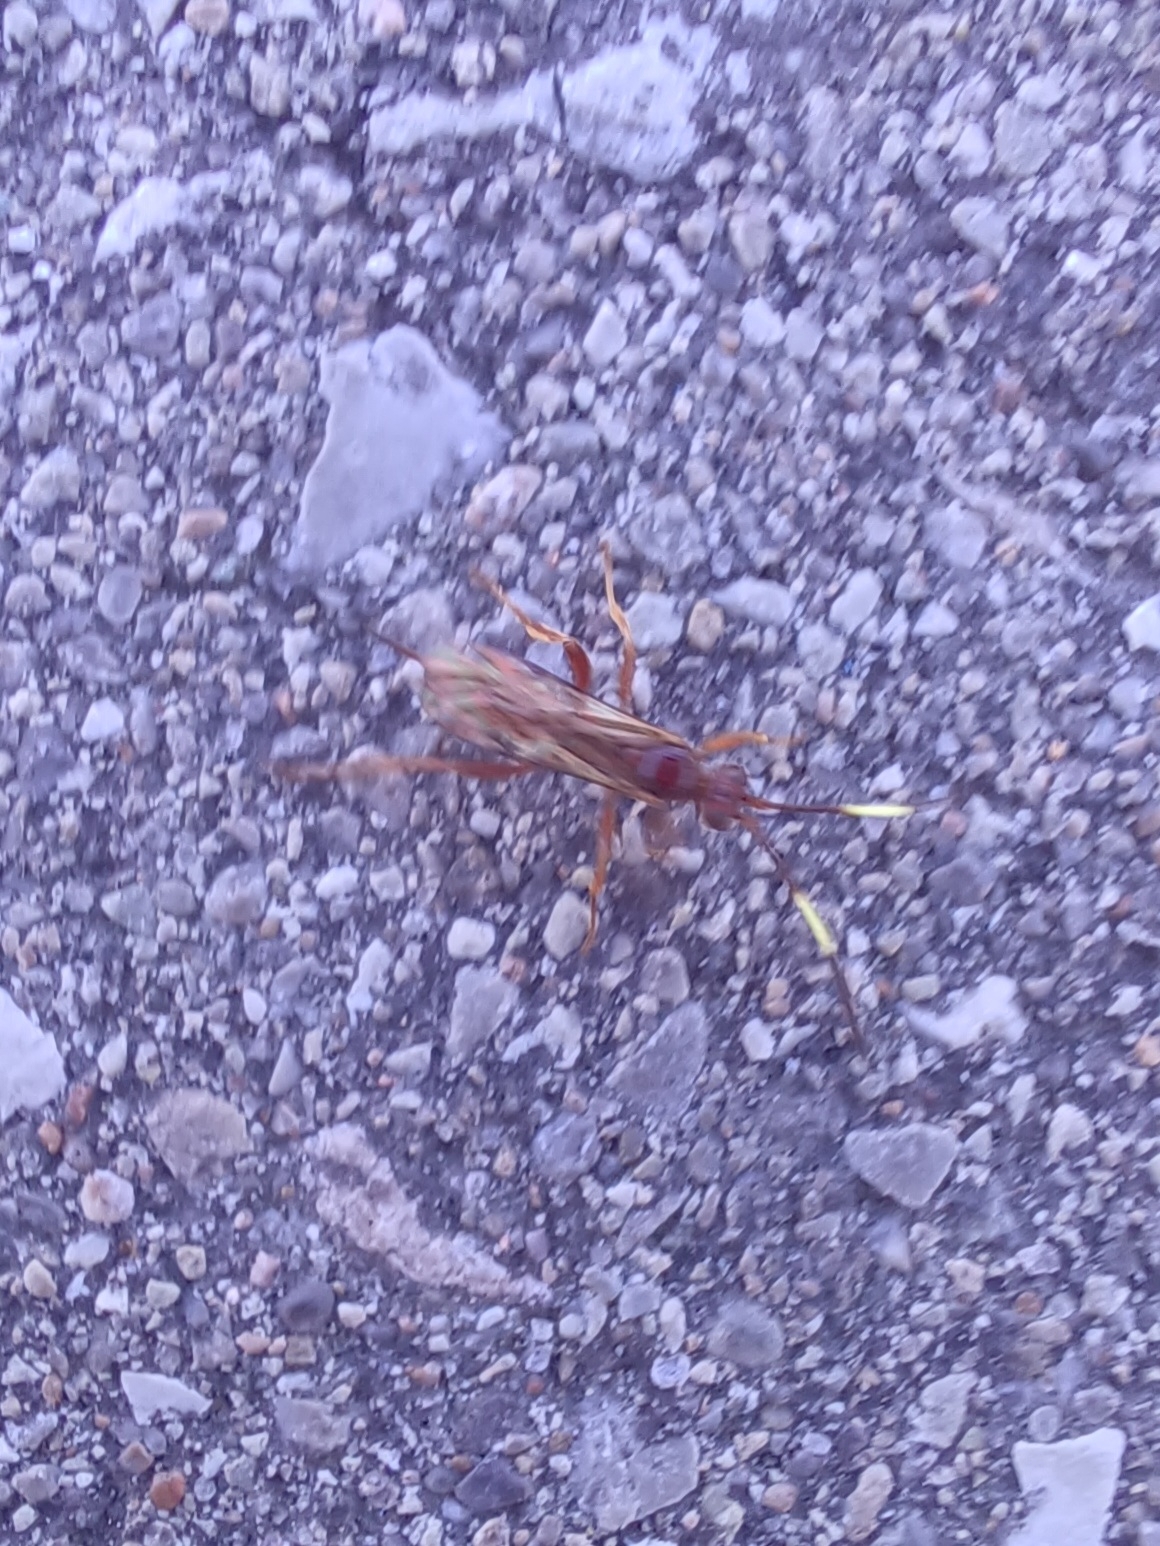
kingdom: Animalia
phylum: Arthropoda
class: Insecta
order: Hymenoptera
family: Ichneumonidae
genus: Polytribax
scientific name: Polytribax pallescens
